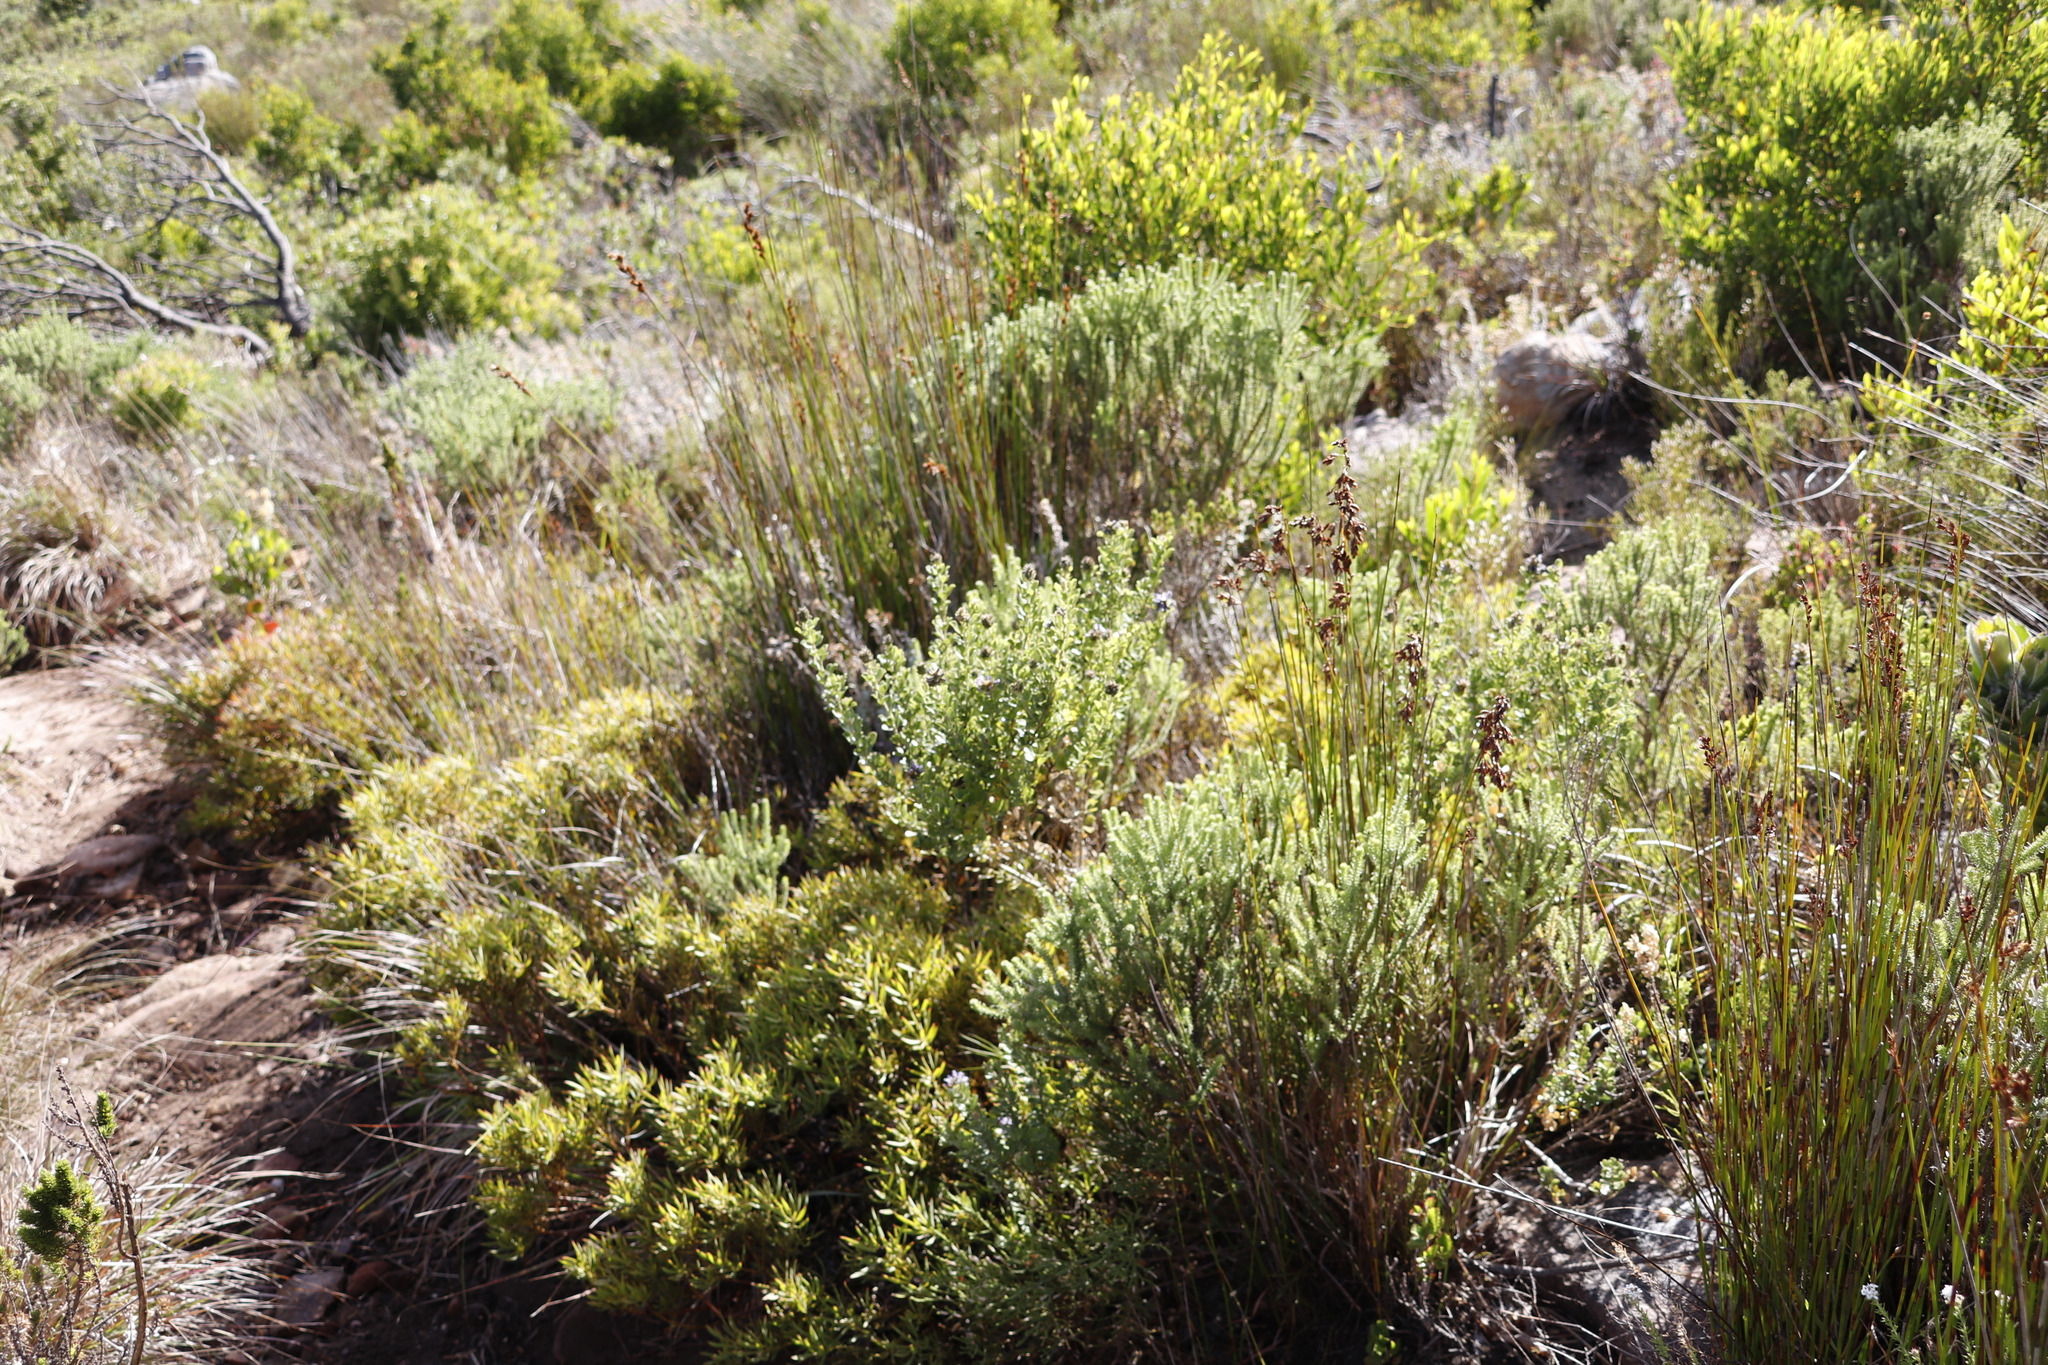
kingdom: Plantae
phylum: Tracheophyta
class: Magnoliopsida
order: Proteales
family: Proteaceae
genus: Leucadendron
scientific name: Leucadendron salignum
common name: Common sunshine conebush
